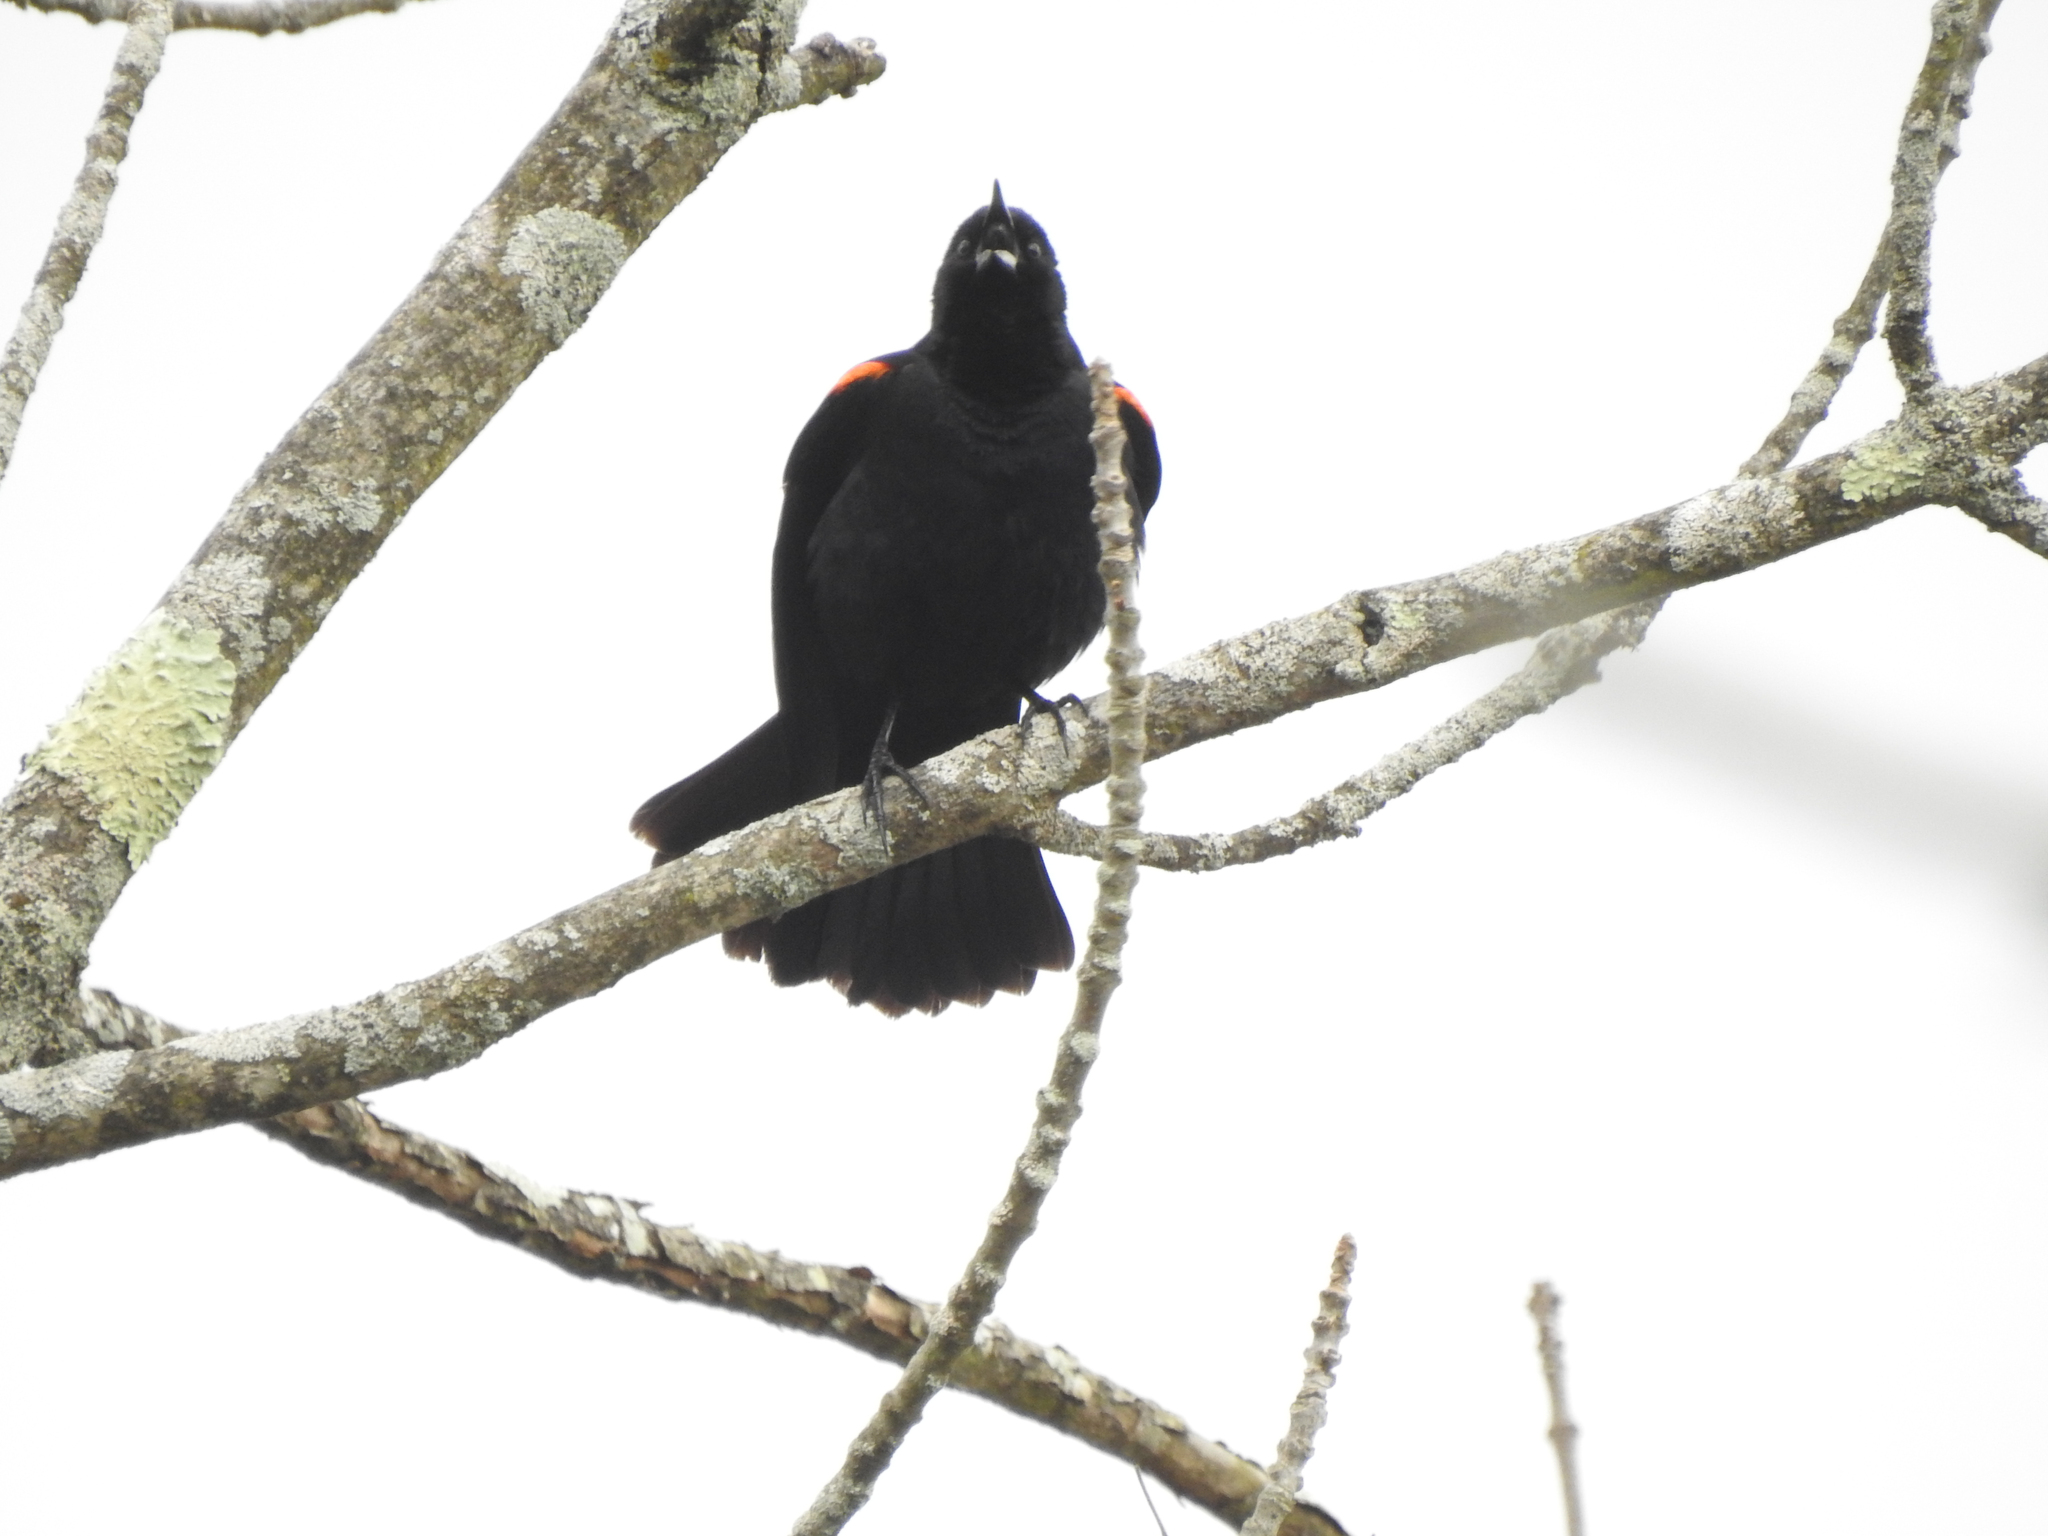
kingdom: Animalia
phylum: Chordata
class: Aves
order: Passeriformes
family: Icteridae
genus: Agelaius
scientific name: Agelaius phoeniceus
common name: Red-winged blackbird
